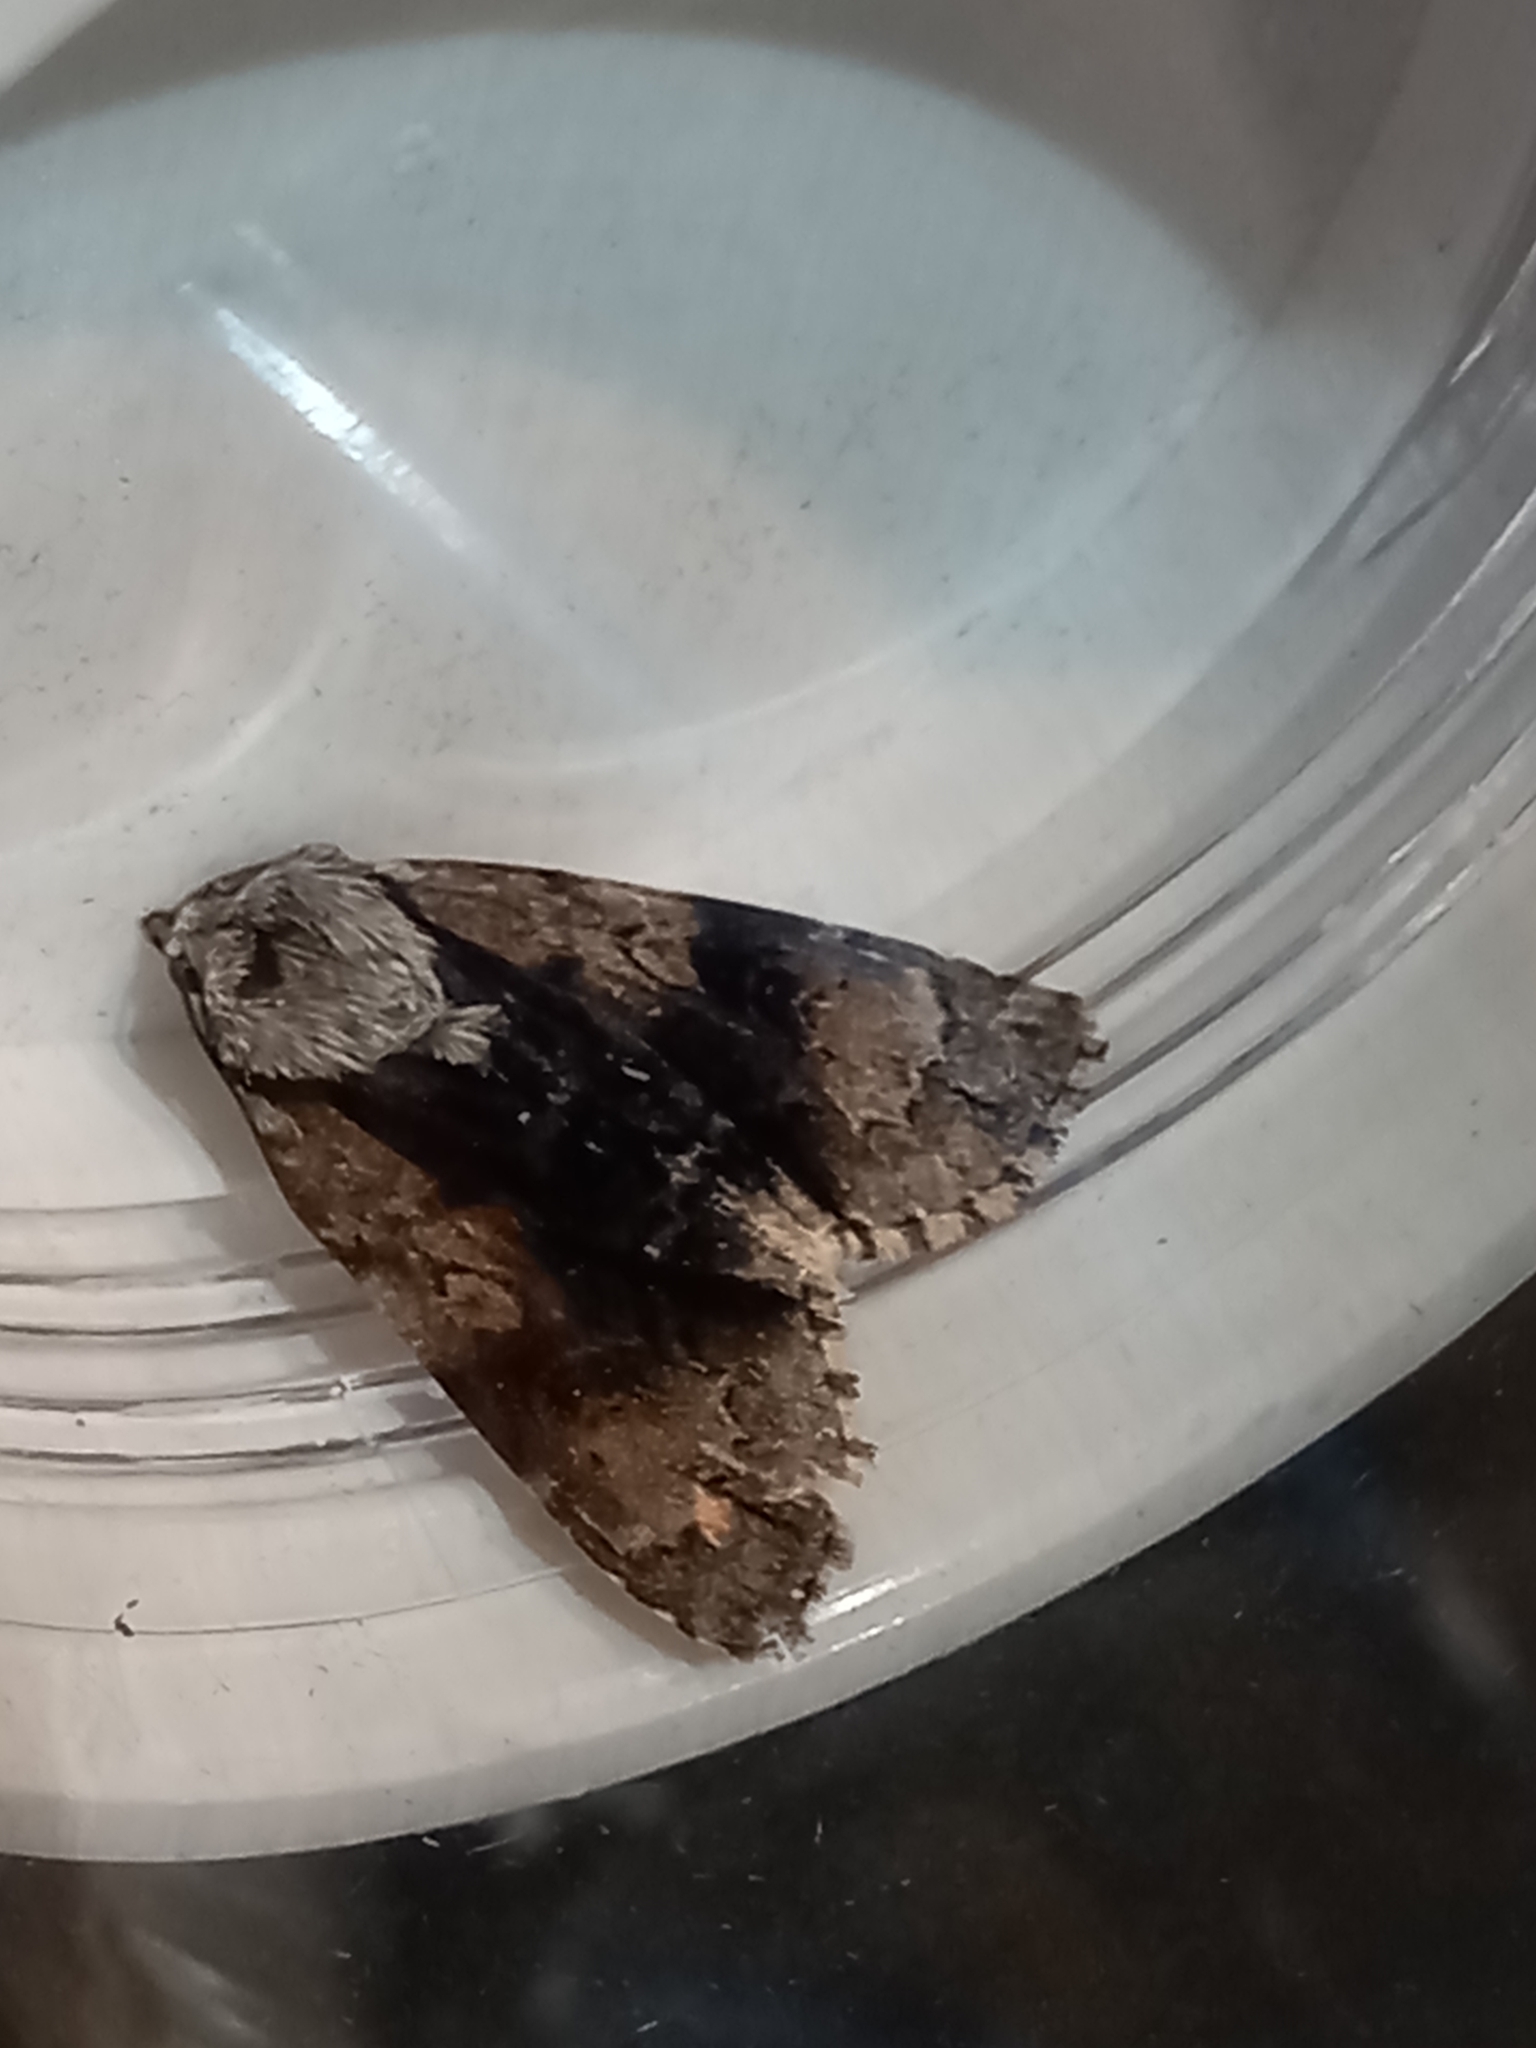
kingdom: Animalia
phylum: Arthropoda
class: Insecta
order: Lepidoptera
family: Noctuidae
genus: Acronicta
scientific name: Acronicta alni
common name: Alder moth
